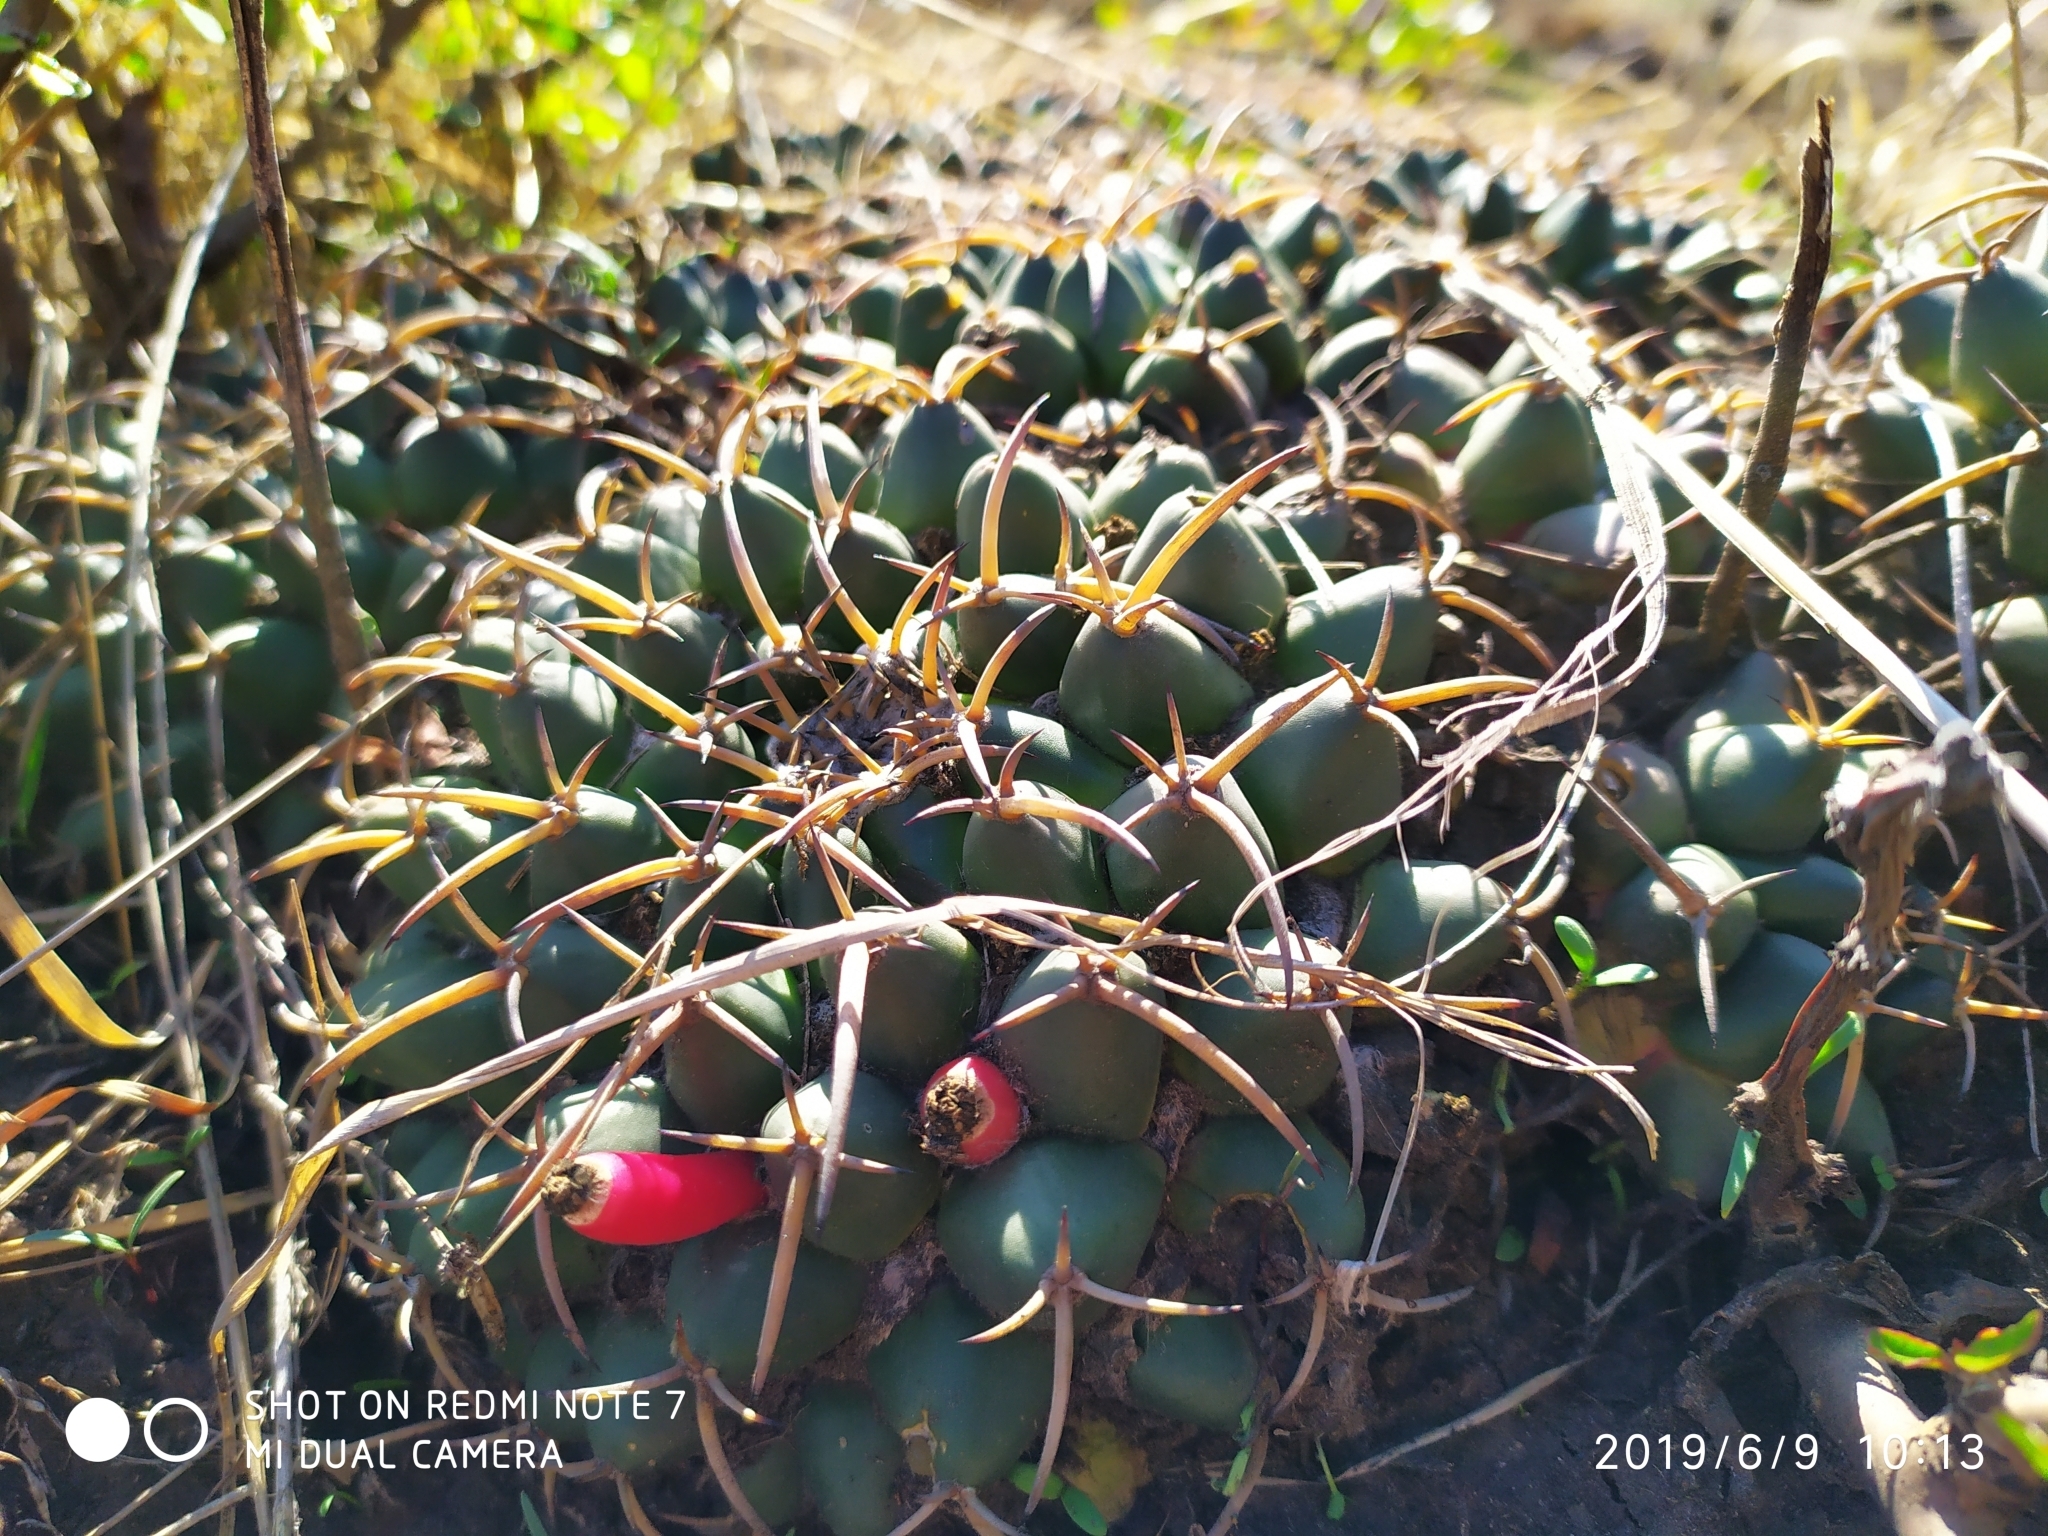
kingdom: Plantae
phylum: Tracheophyta
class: Magnoliopsida
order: Caryophyllales
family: Cactaceae
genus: Mammillaria
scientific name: Mammillaria magnimamma
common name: Mexican pincushion
